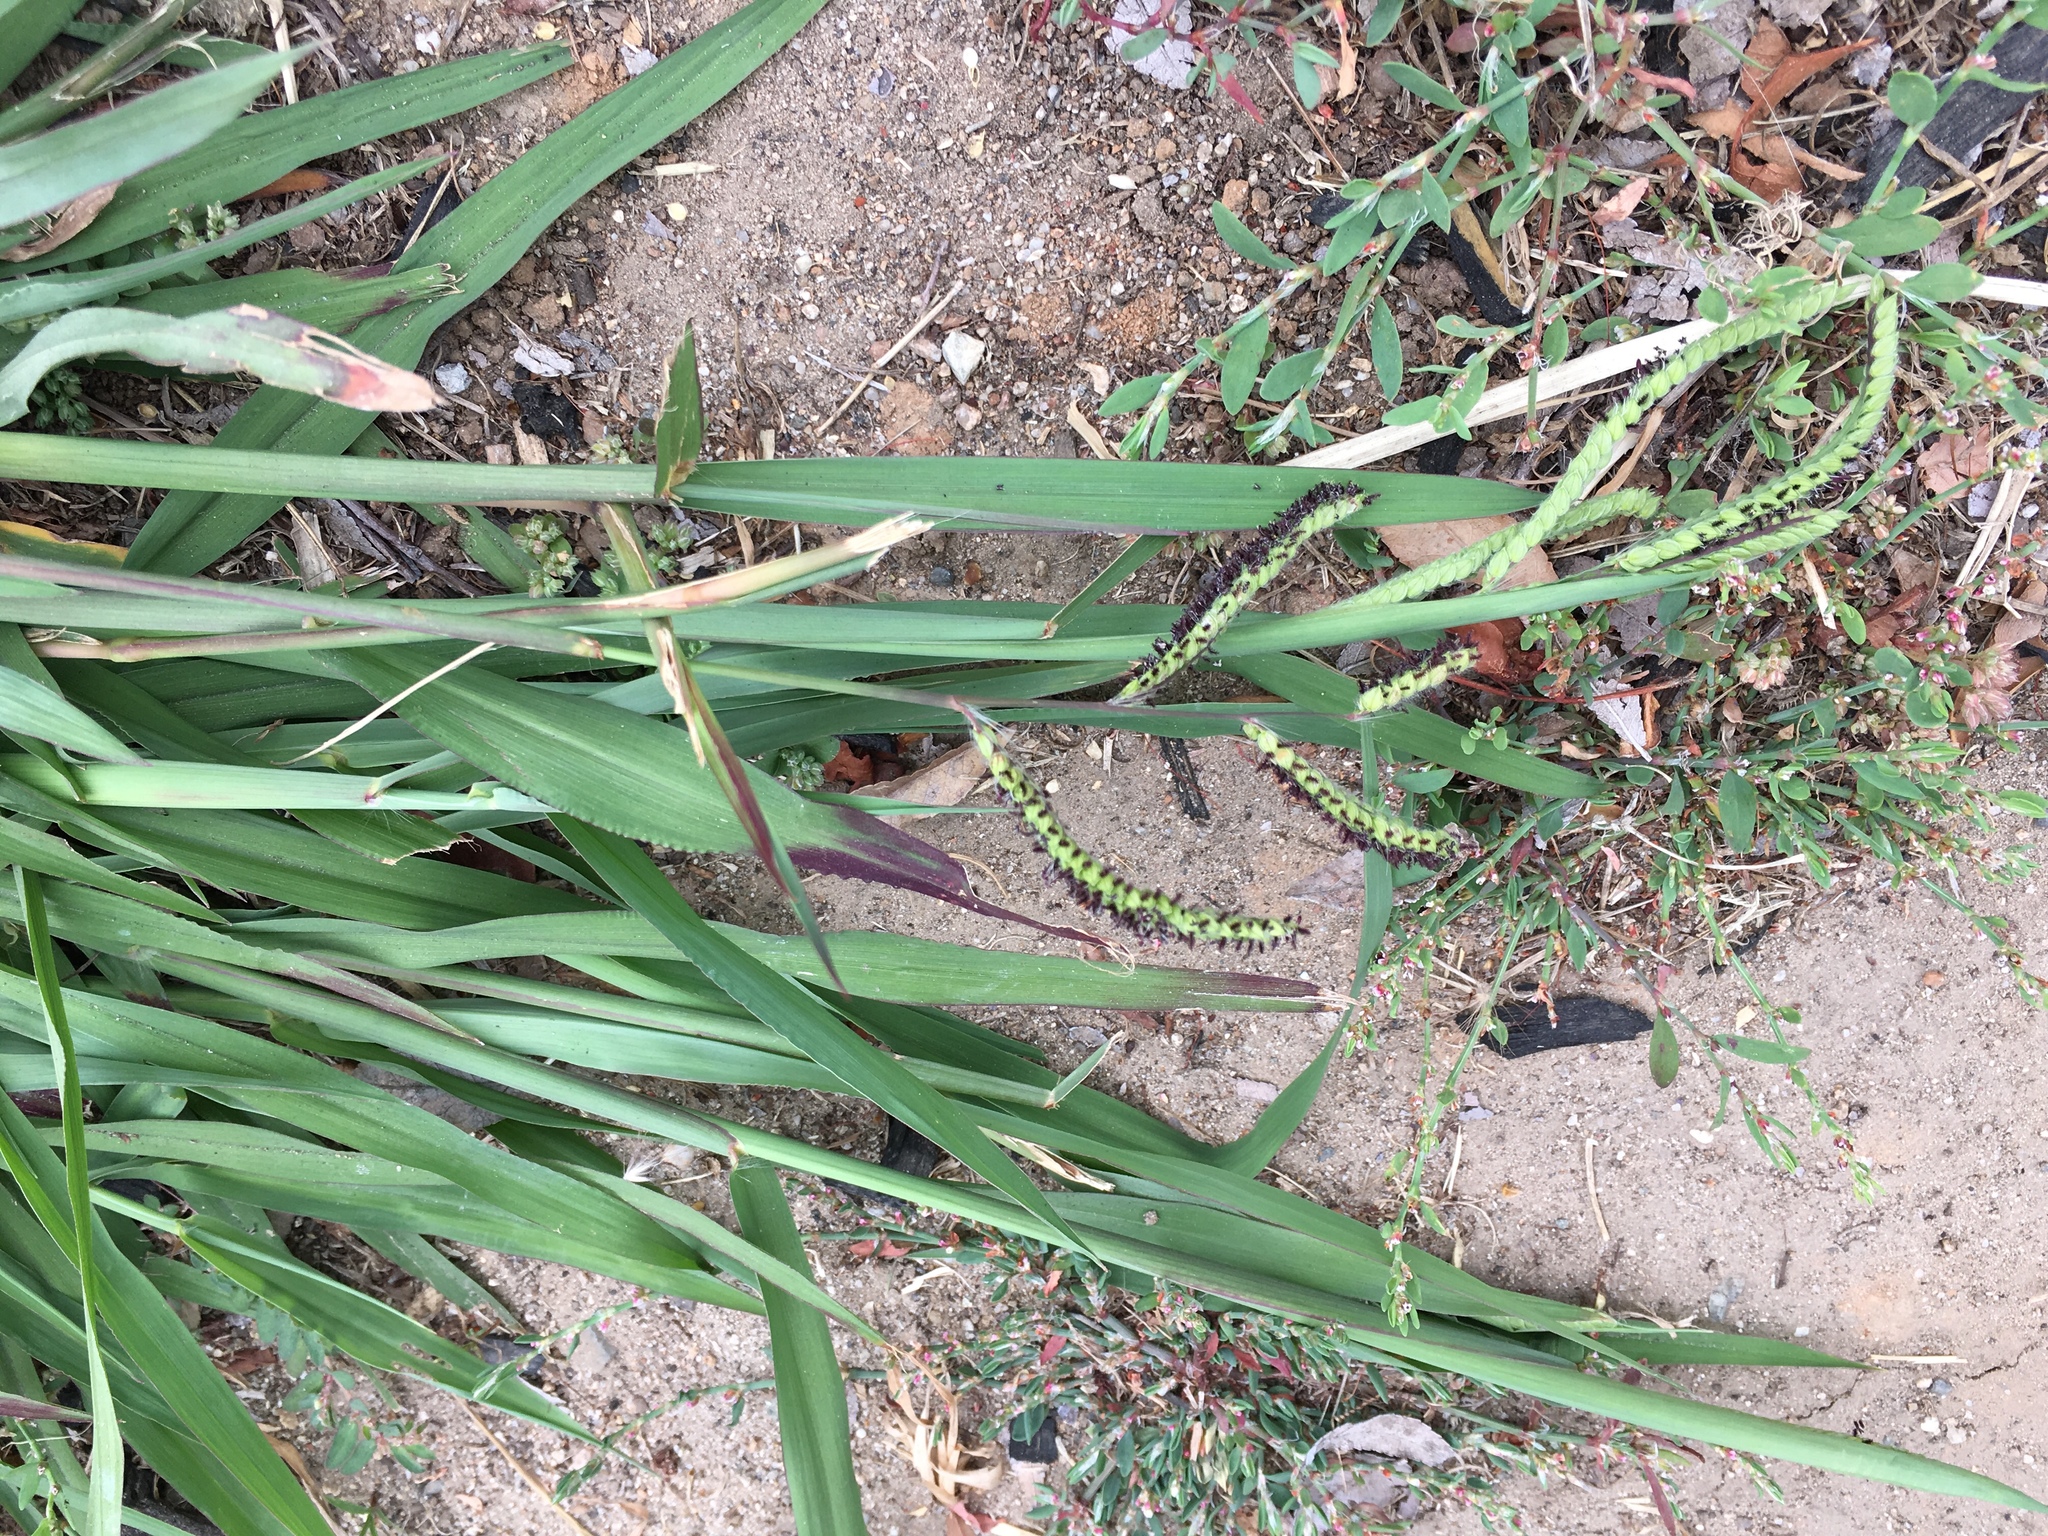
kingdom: Plantae
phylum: Tracheophyta
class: Liliopsida
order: Poales
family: Poaceae
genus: Paspalum
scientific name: Paspalum dilatatum
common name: Dallisgrass
